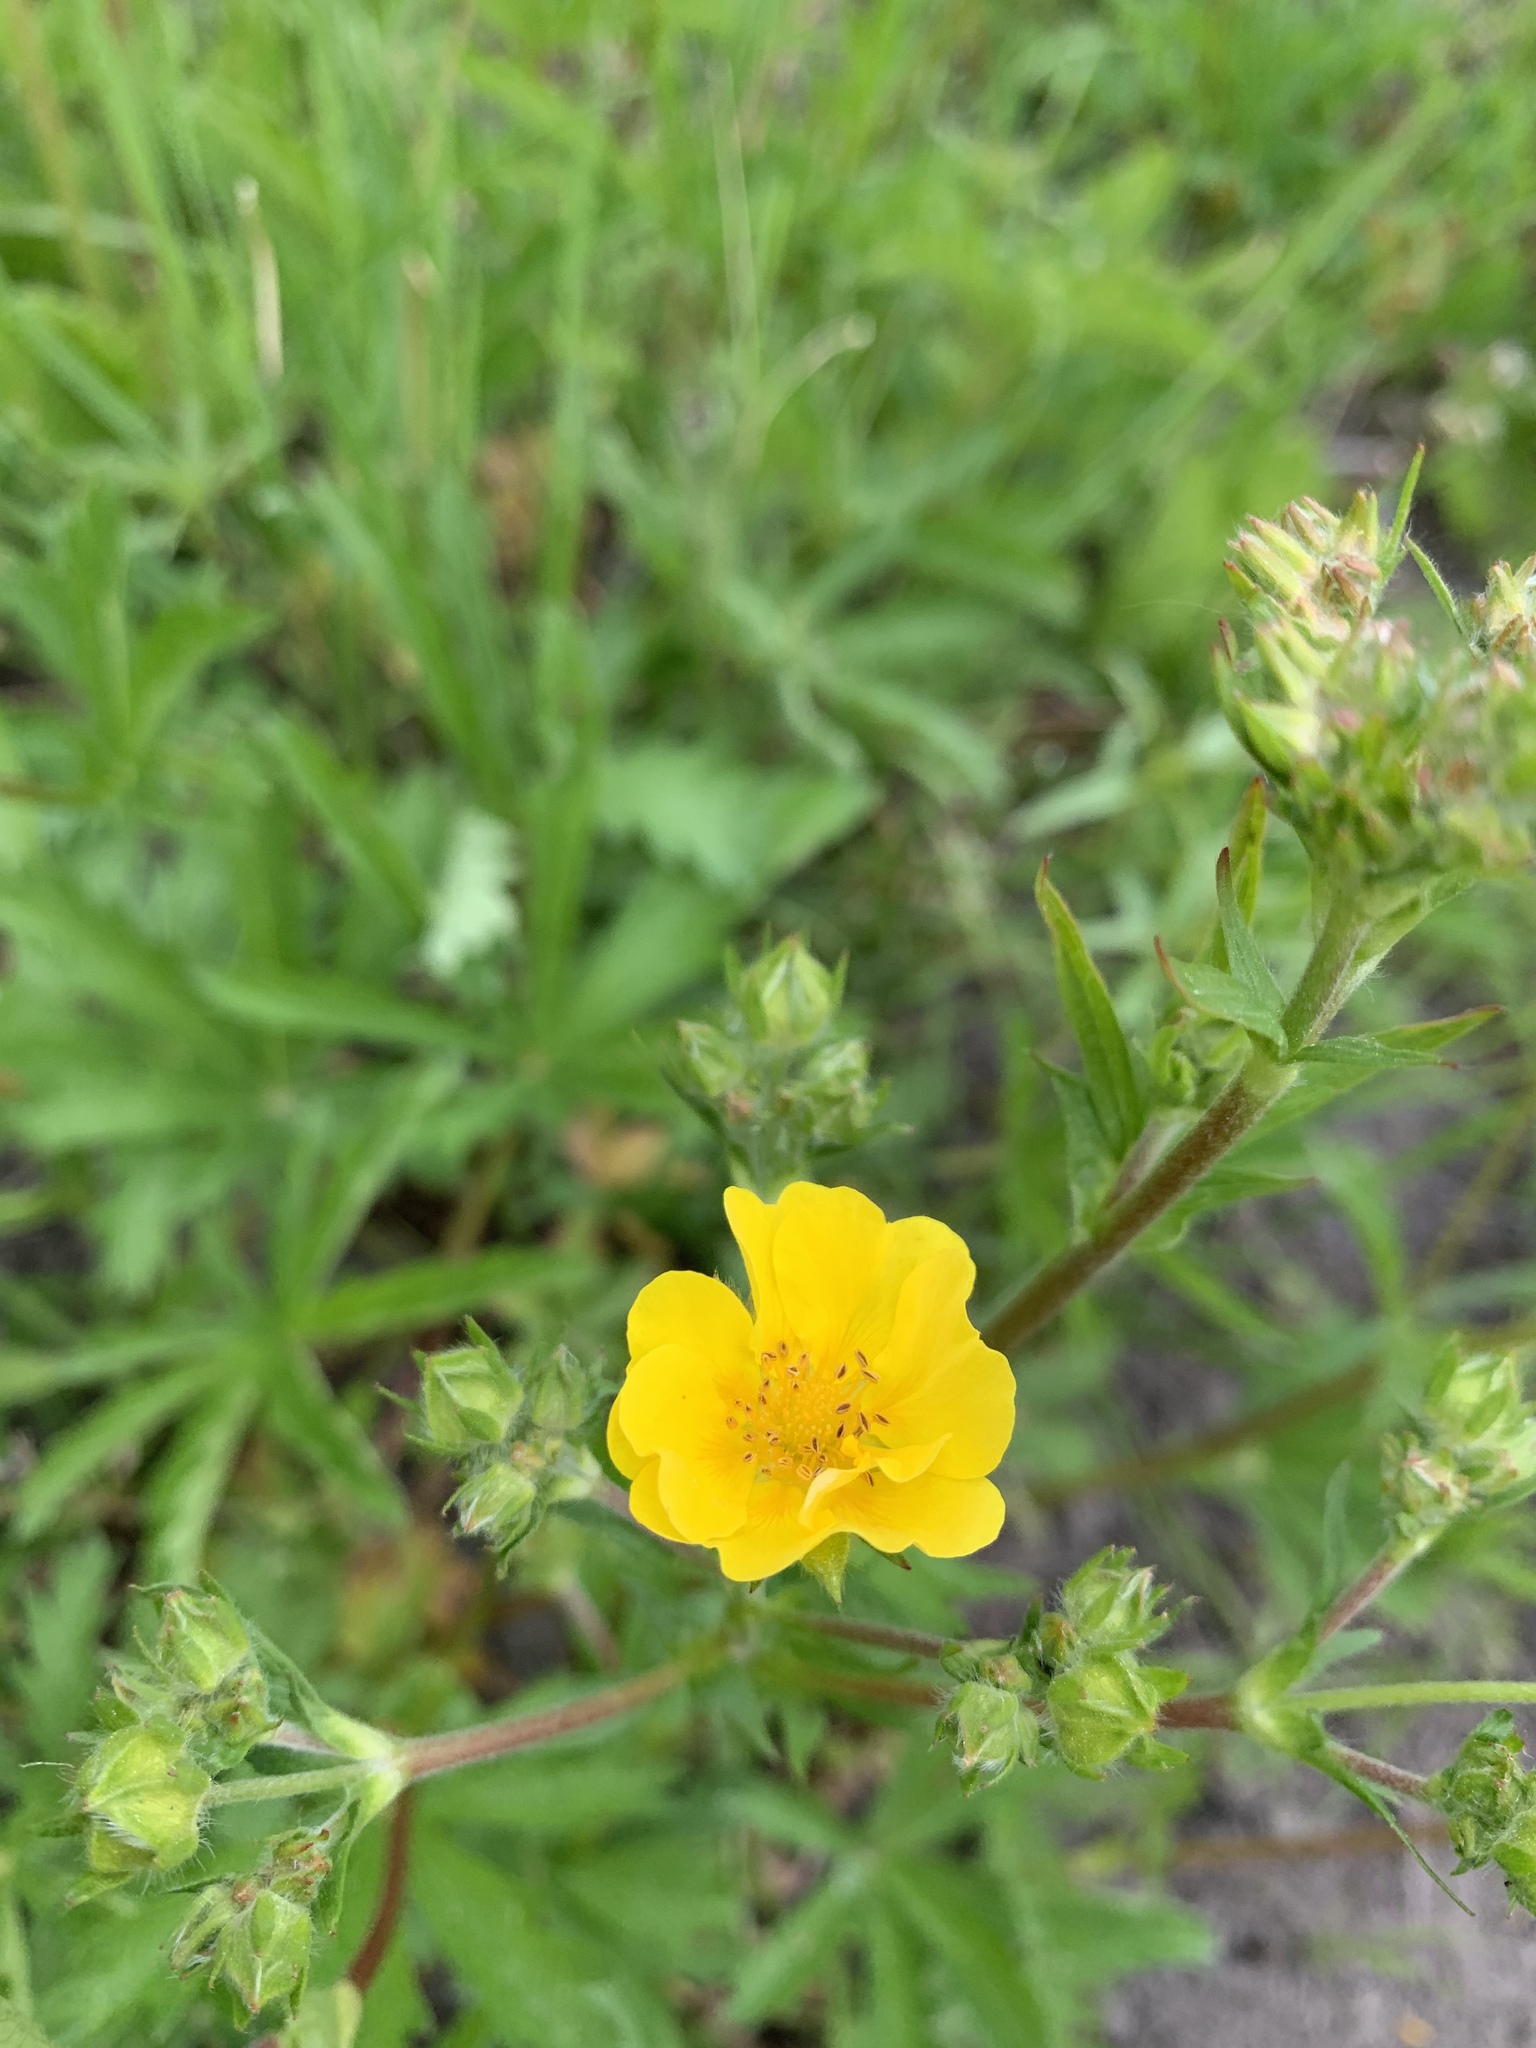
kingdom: Plantae
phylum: Tracheophyta
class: Magnoliopsida
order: Rosales
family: Rosaceae
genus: Potentilla
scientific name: Potentilla gracilis
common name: Graceful cinquefoil
